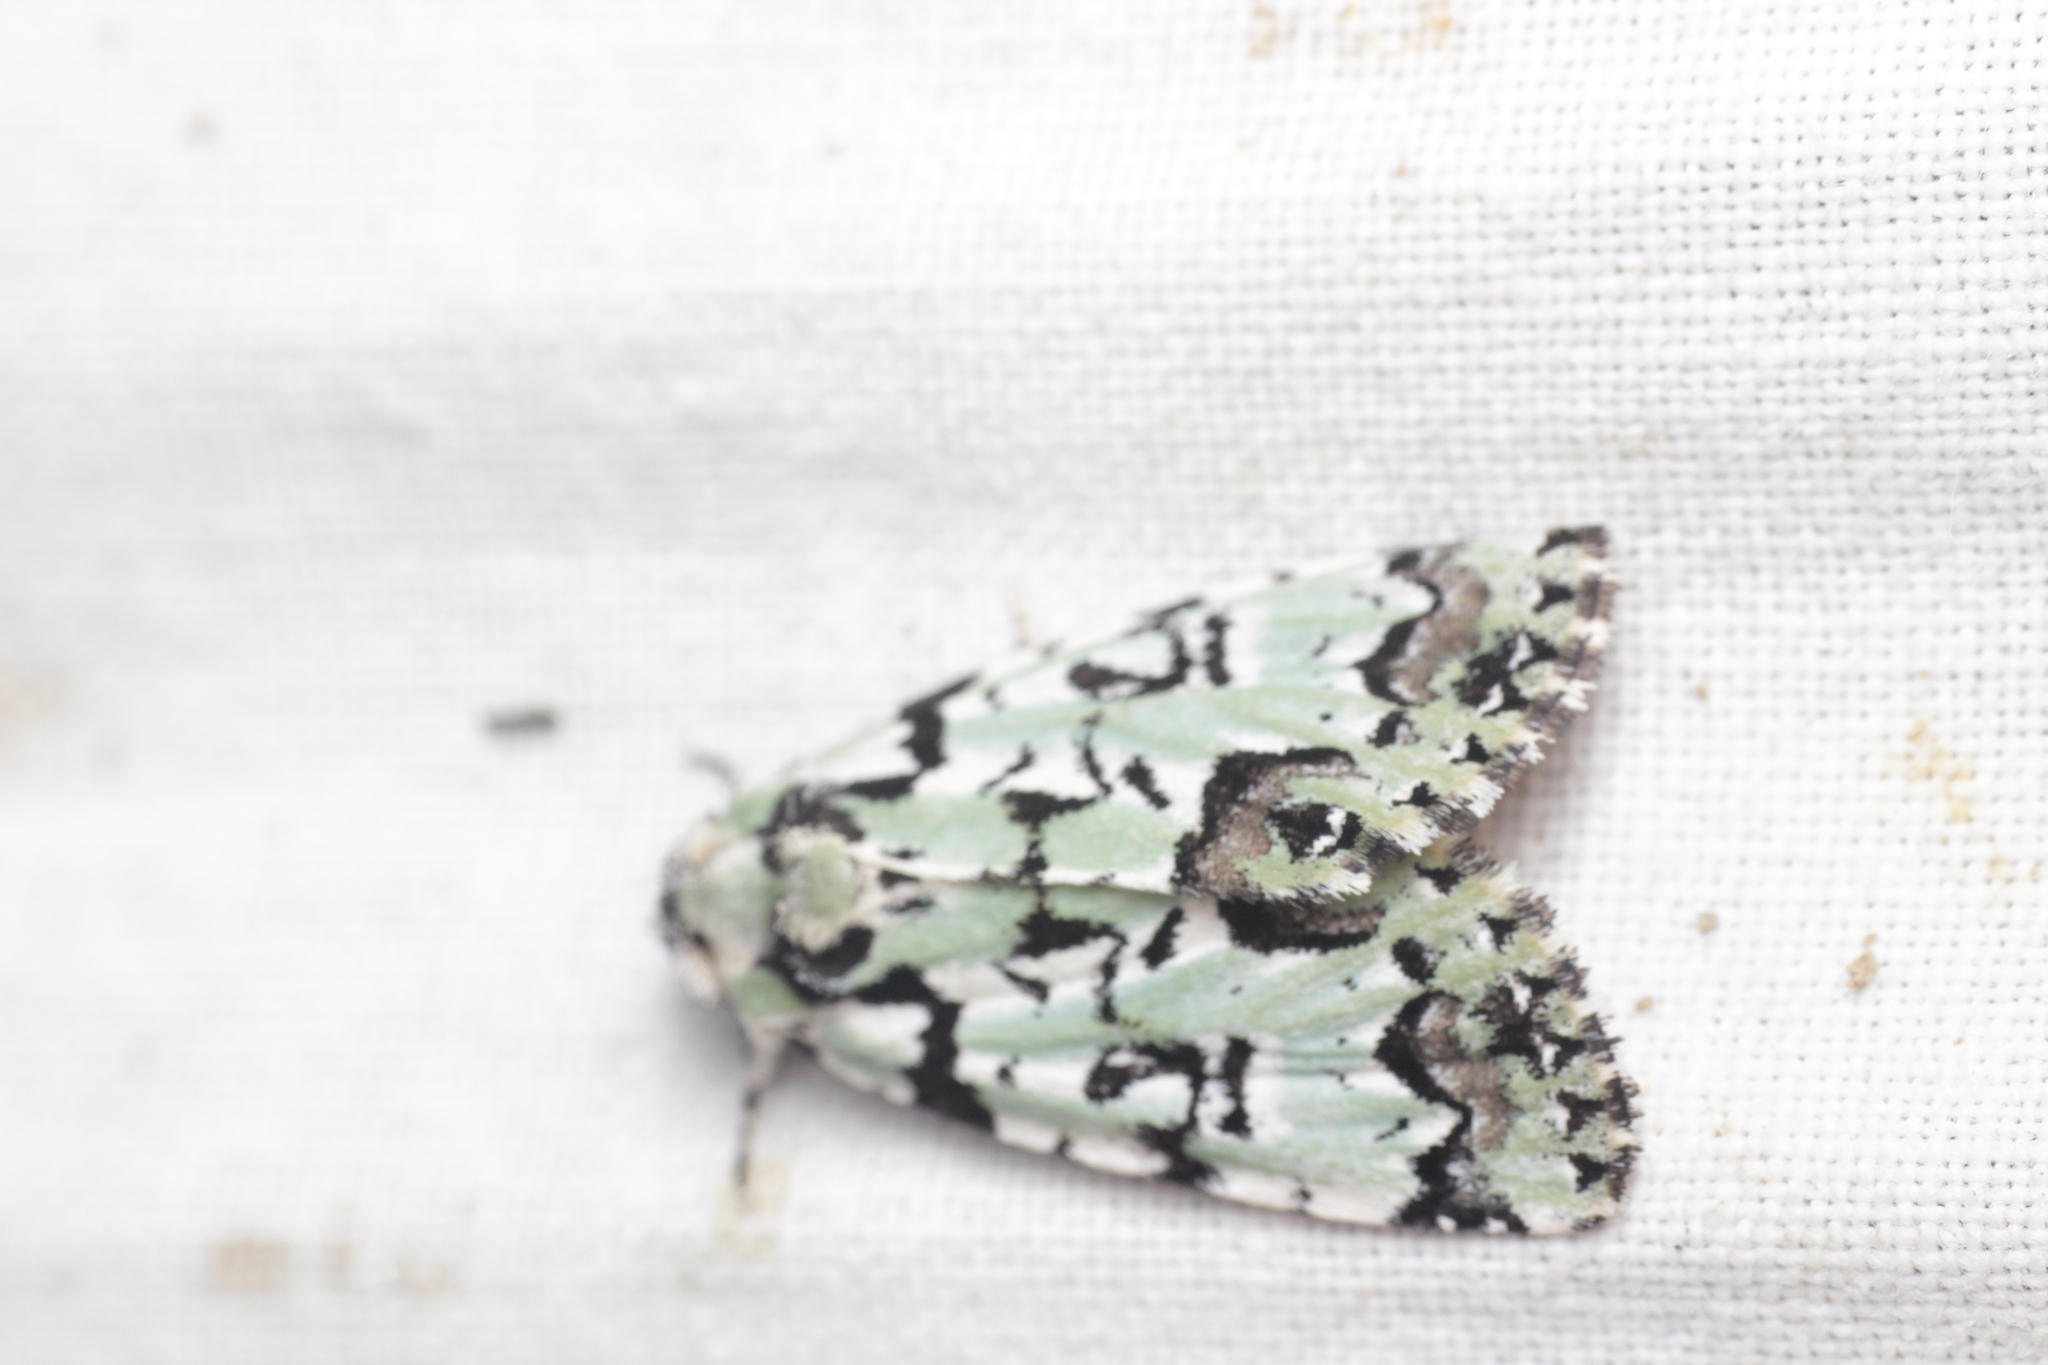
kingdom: Animalia
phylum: Arthropoda
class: Insecta
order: Lepidoptera
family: Noctuidae
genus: Moma
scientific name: Moma alpium
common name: Scarce merveille du jour
